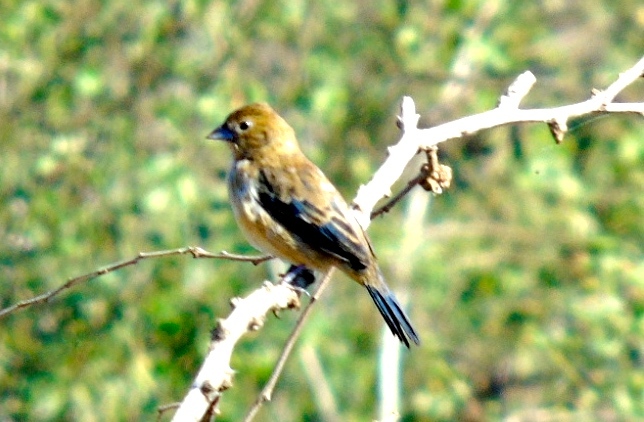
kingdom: Animalia
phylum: Chordata
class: Aves
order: Passeriformes
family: Thraupidae
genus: Volatinia
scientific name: Volatinia jacarina
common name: Blue-black grassquit
